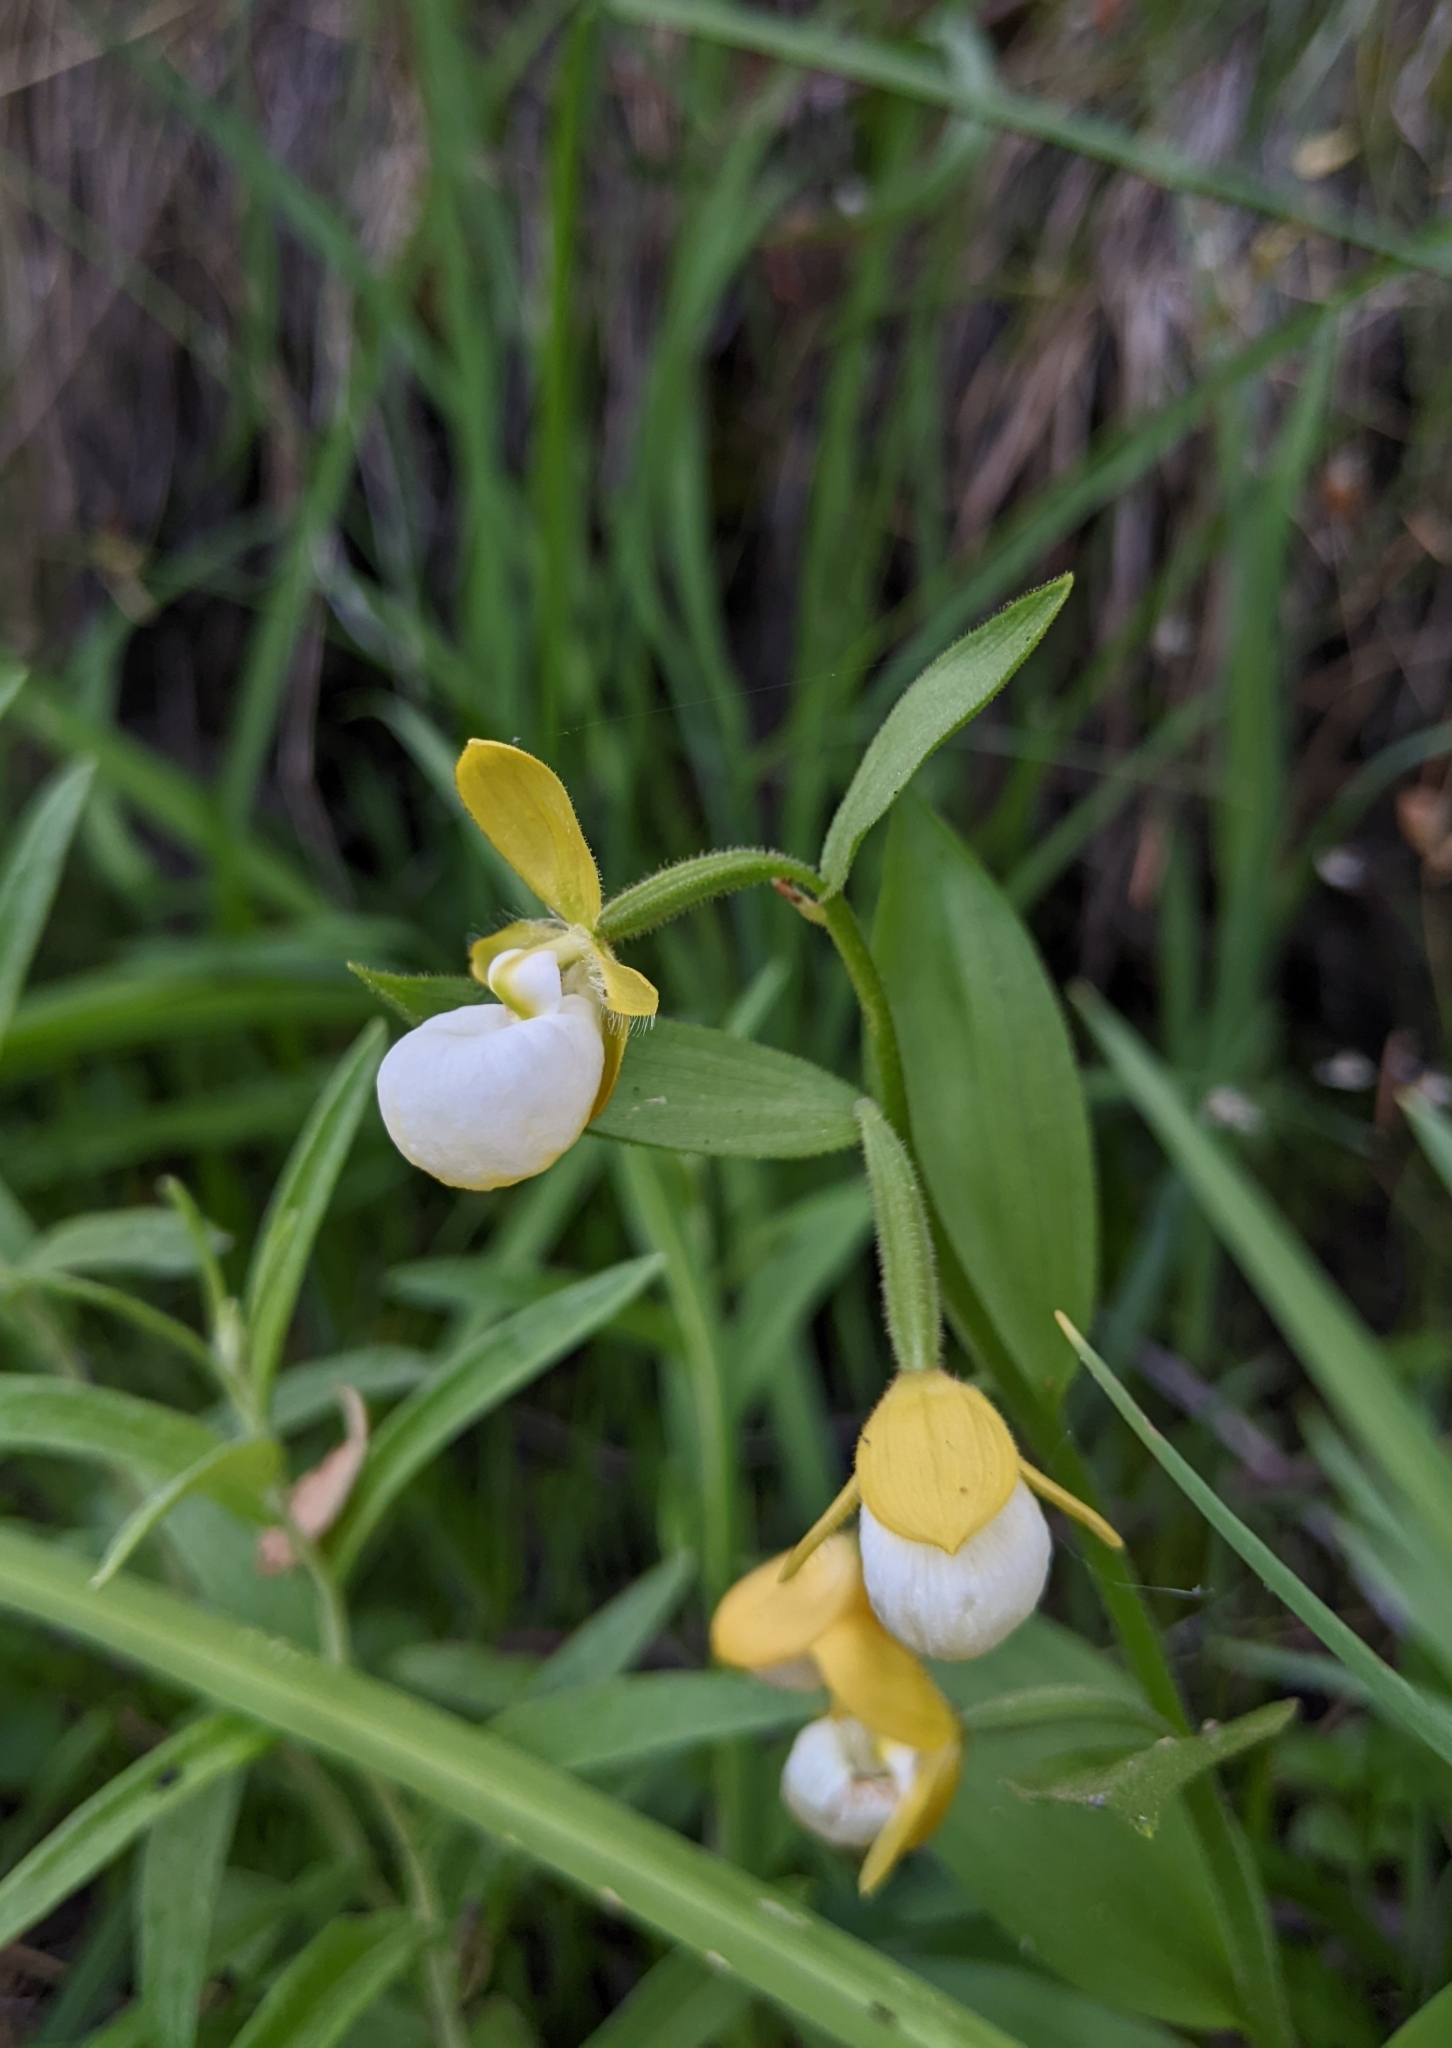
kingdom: Plantae
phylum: Tracheophyta
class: Liliopsida
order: Asparagales
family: Orchidaceae
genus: Cypripedium
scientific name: Cypripedium californicum
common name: California lady's slipper
